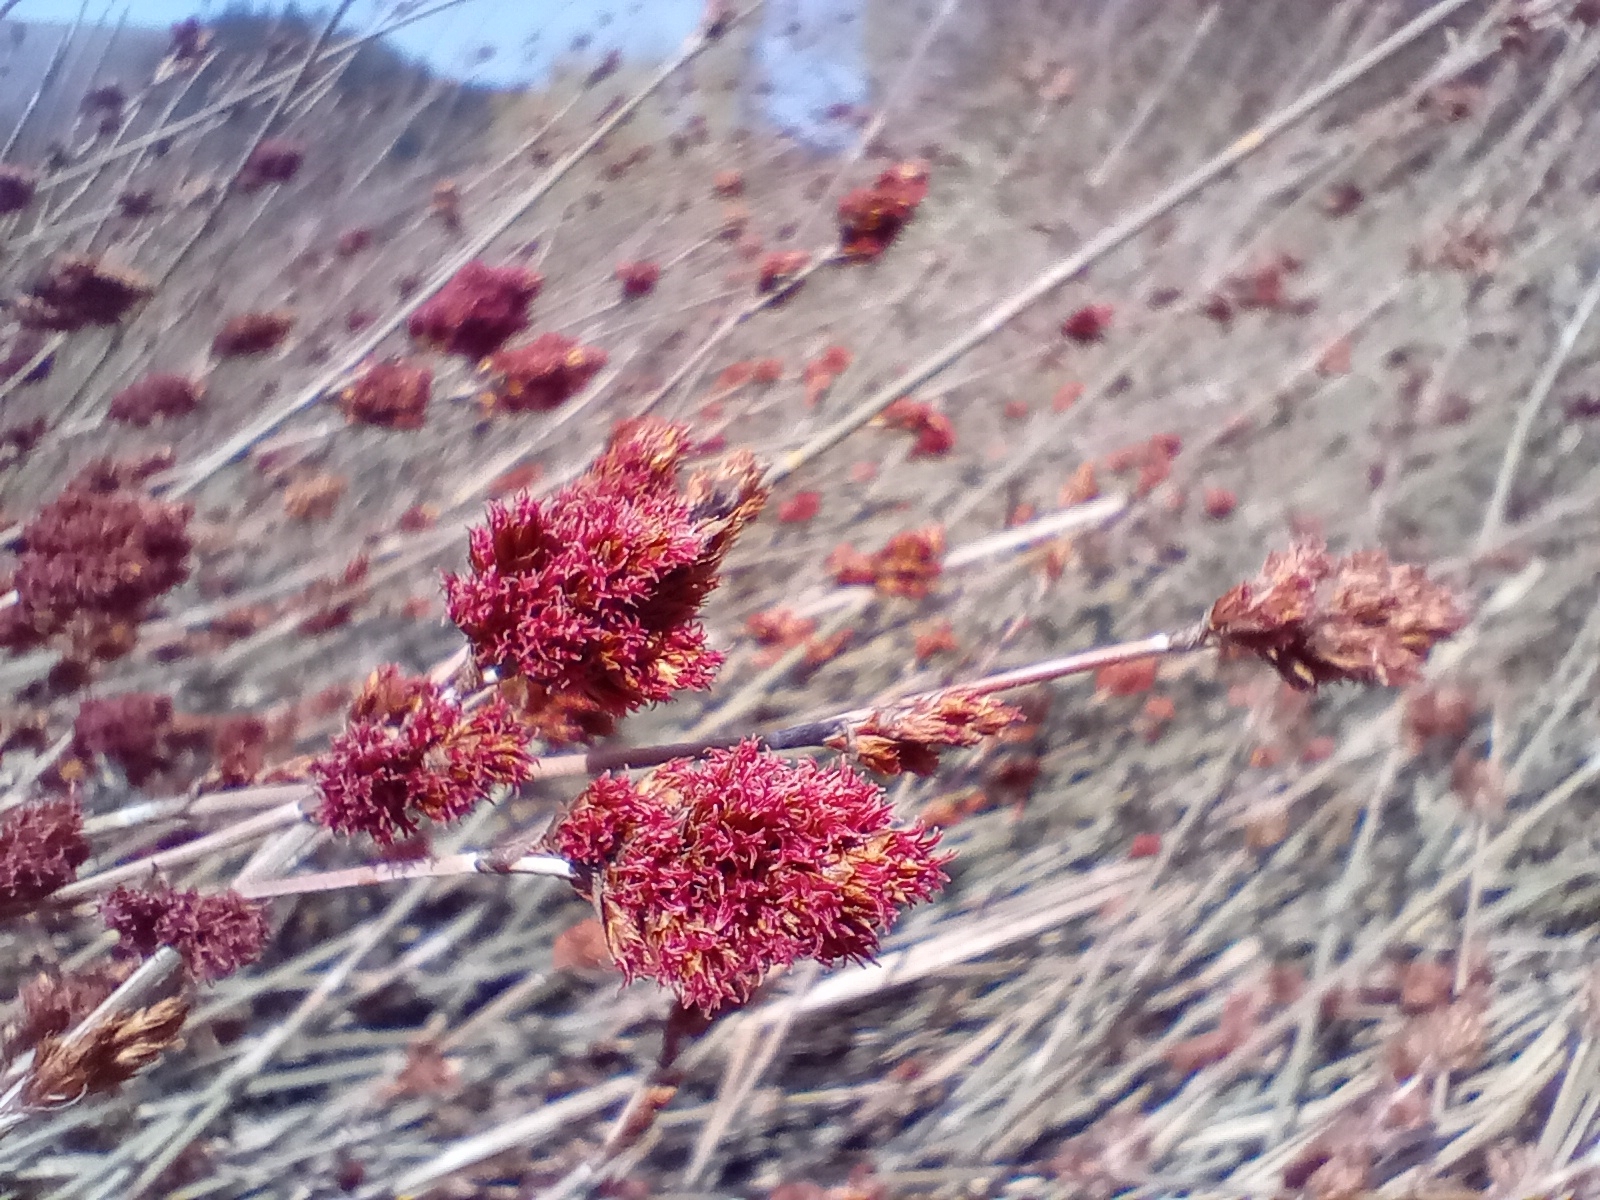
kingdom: Plantae
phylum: Tracheophyta
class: Liliopsida
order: Poales
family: Restionaceae
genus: Apodasmia
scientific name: Apodasmia similis
